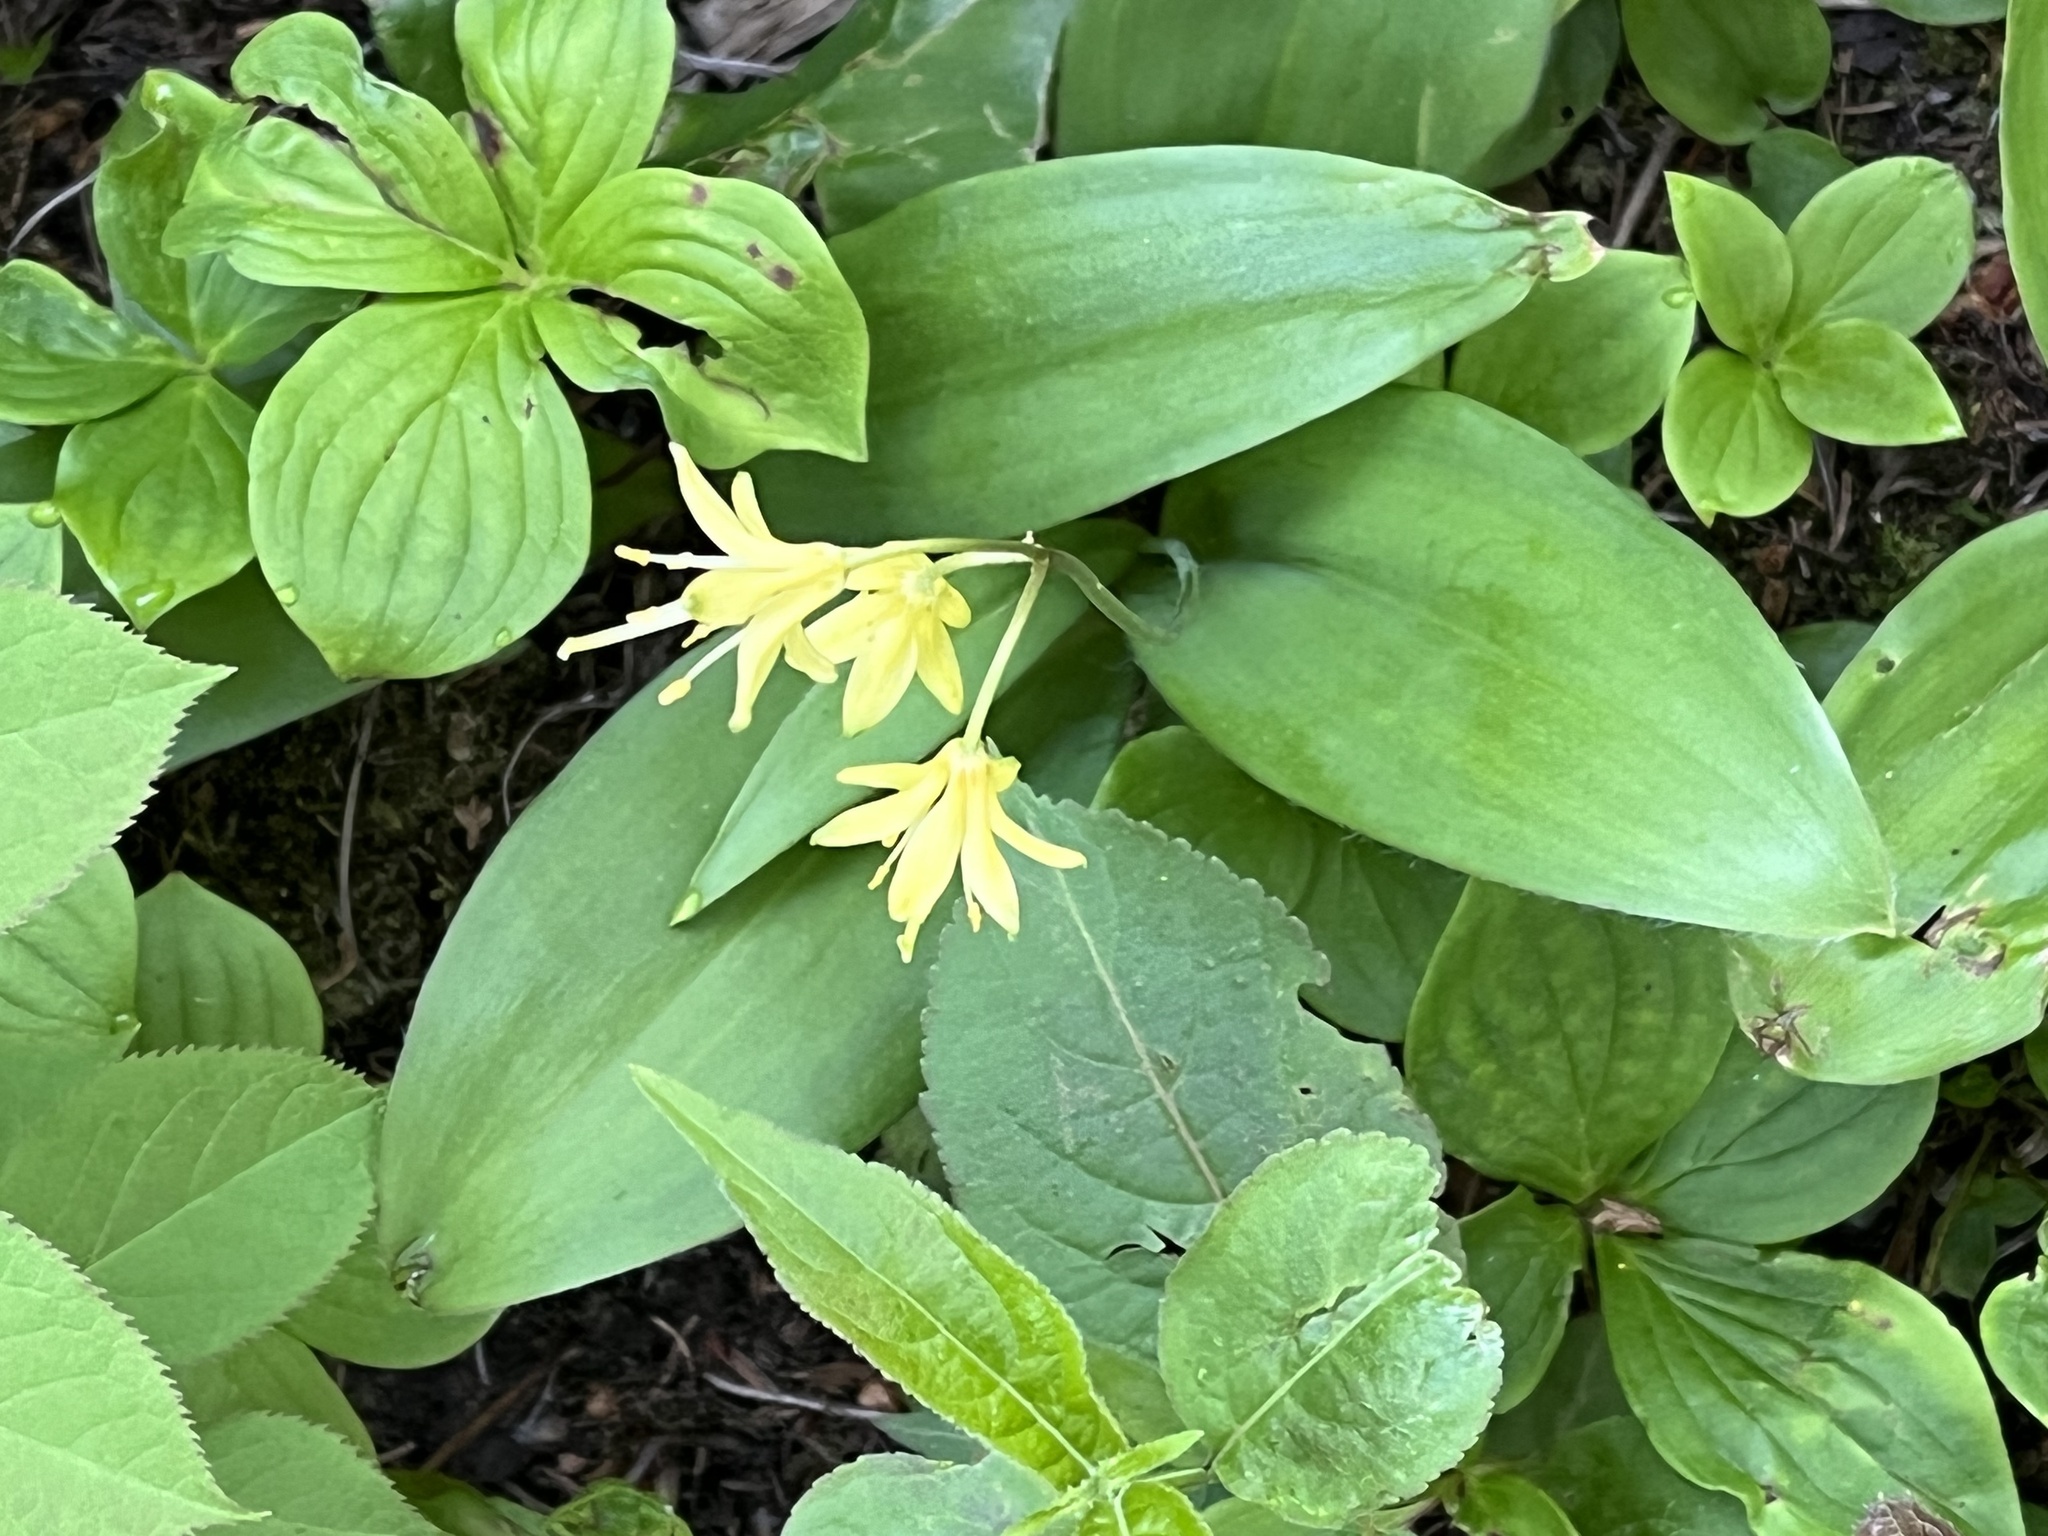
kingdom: Plantae
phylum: Tracheophyta
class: Liliopsida
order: Liliales
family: Liliaceae
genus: Clintonia
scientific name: Clintonia borealis
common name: Yellow clintonia
